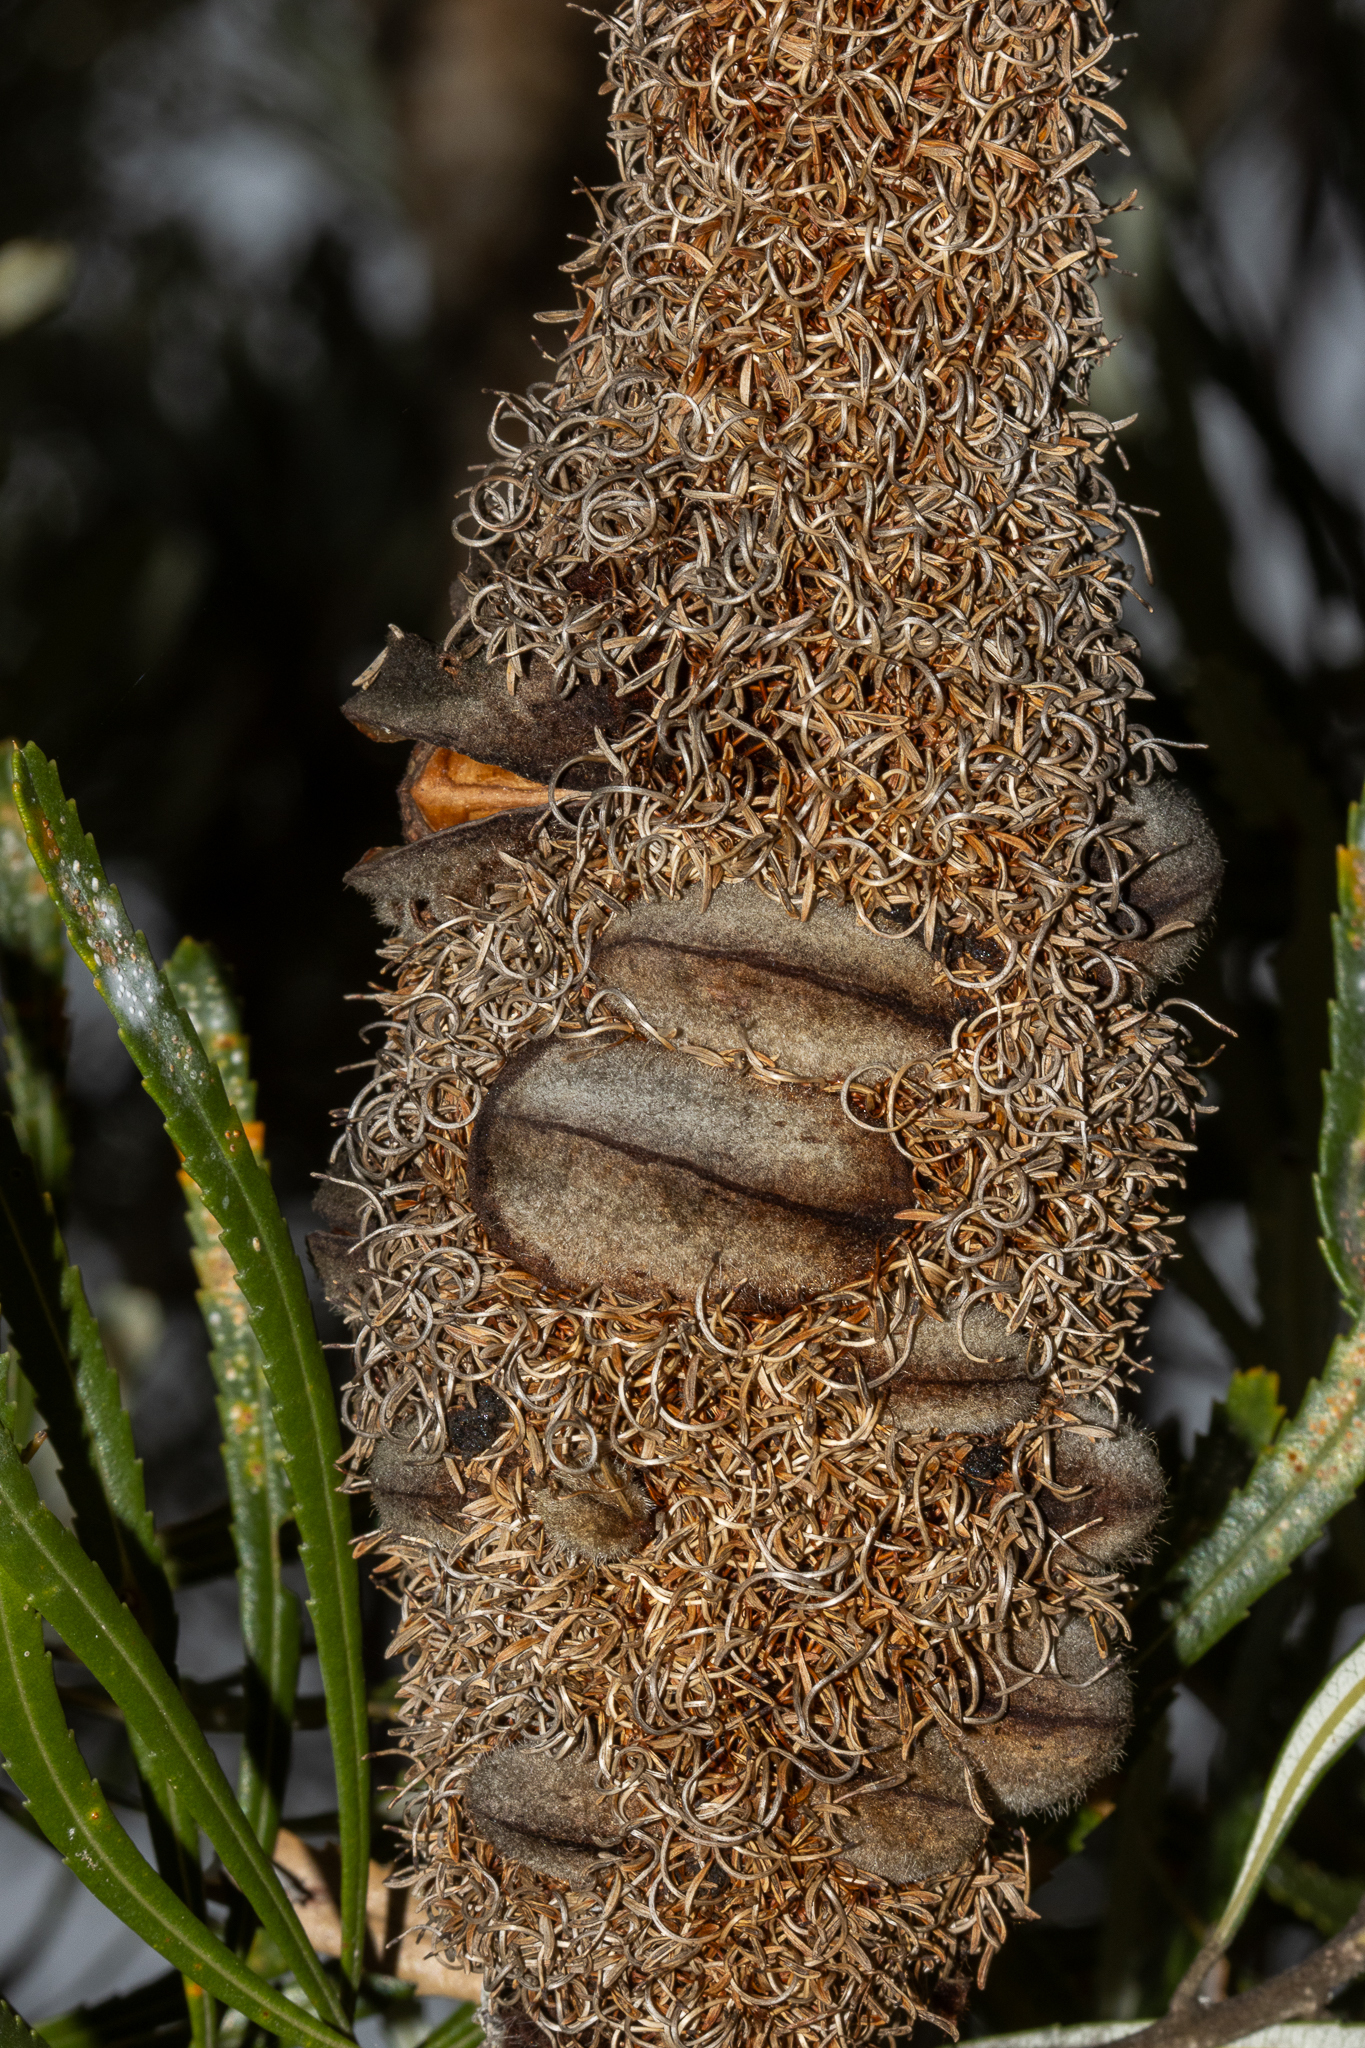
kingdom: Plantae
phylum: Tracheophyta
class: Magnoliopsida
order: Proteales
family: Proteaceae
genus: Banksia
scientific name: Banksia menziesii
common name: Menzie's banksia
